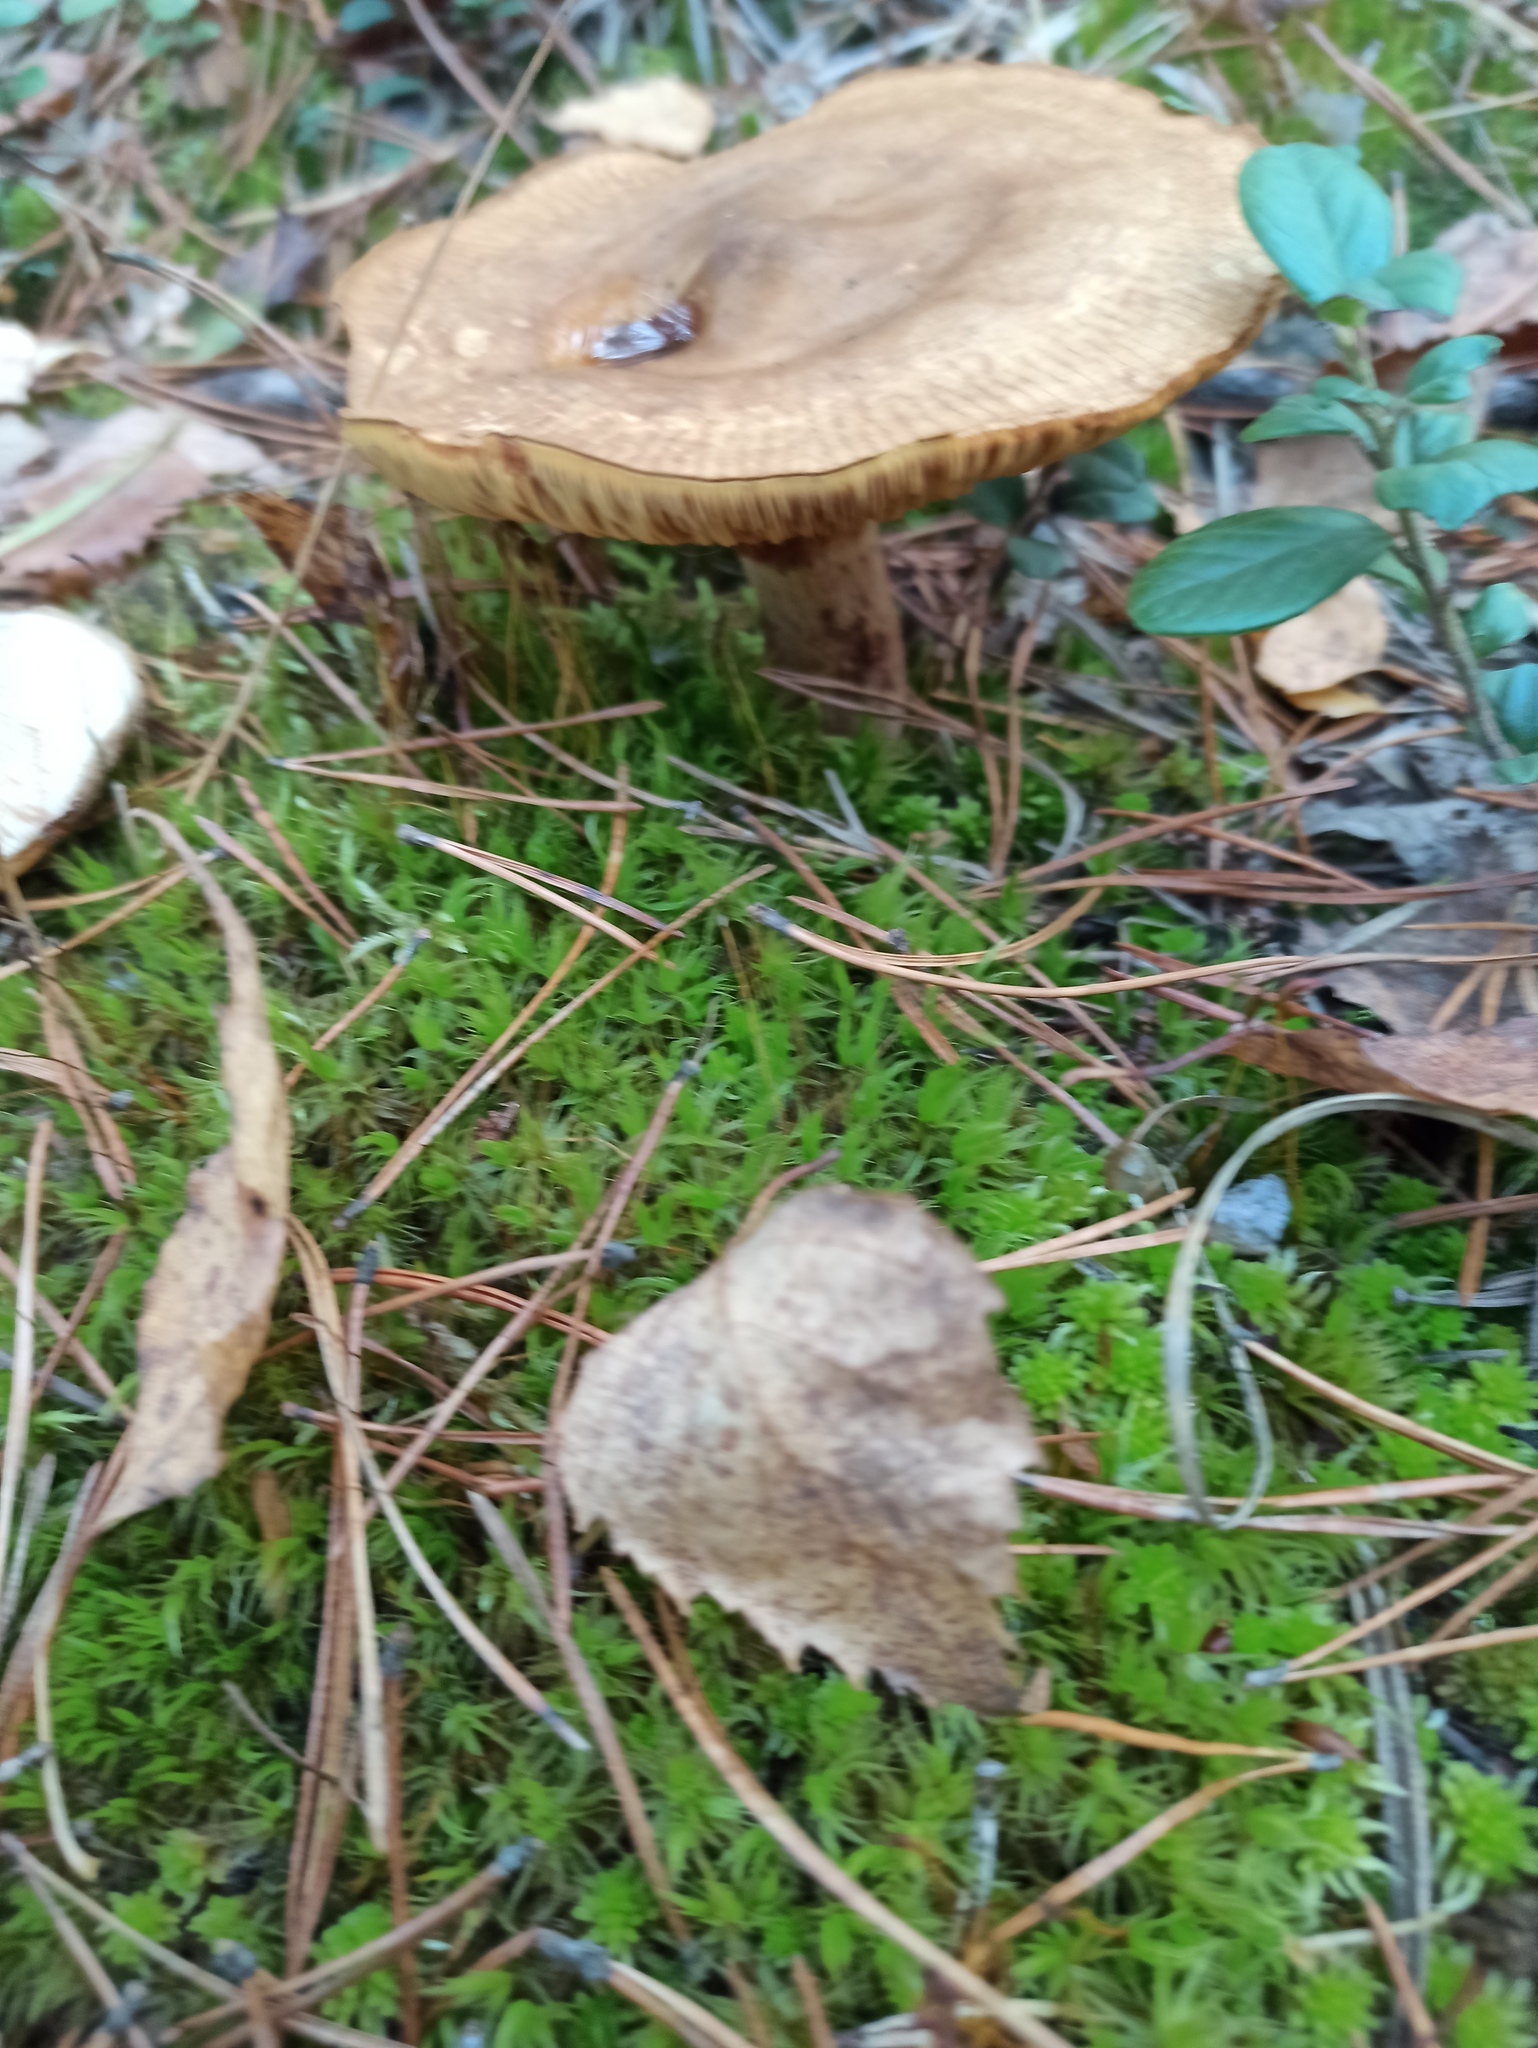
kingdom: Fungi
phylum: Basidiomycota
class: Agaricomycetes
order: Boletales
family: Paxillaceae
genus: Paxillus
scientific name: Paxillus involutus
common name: Brown roll rim
